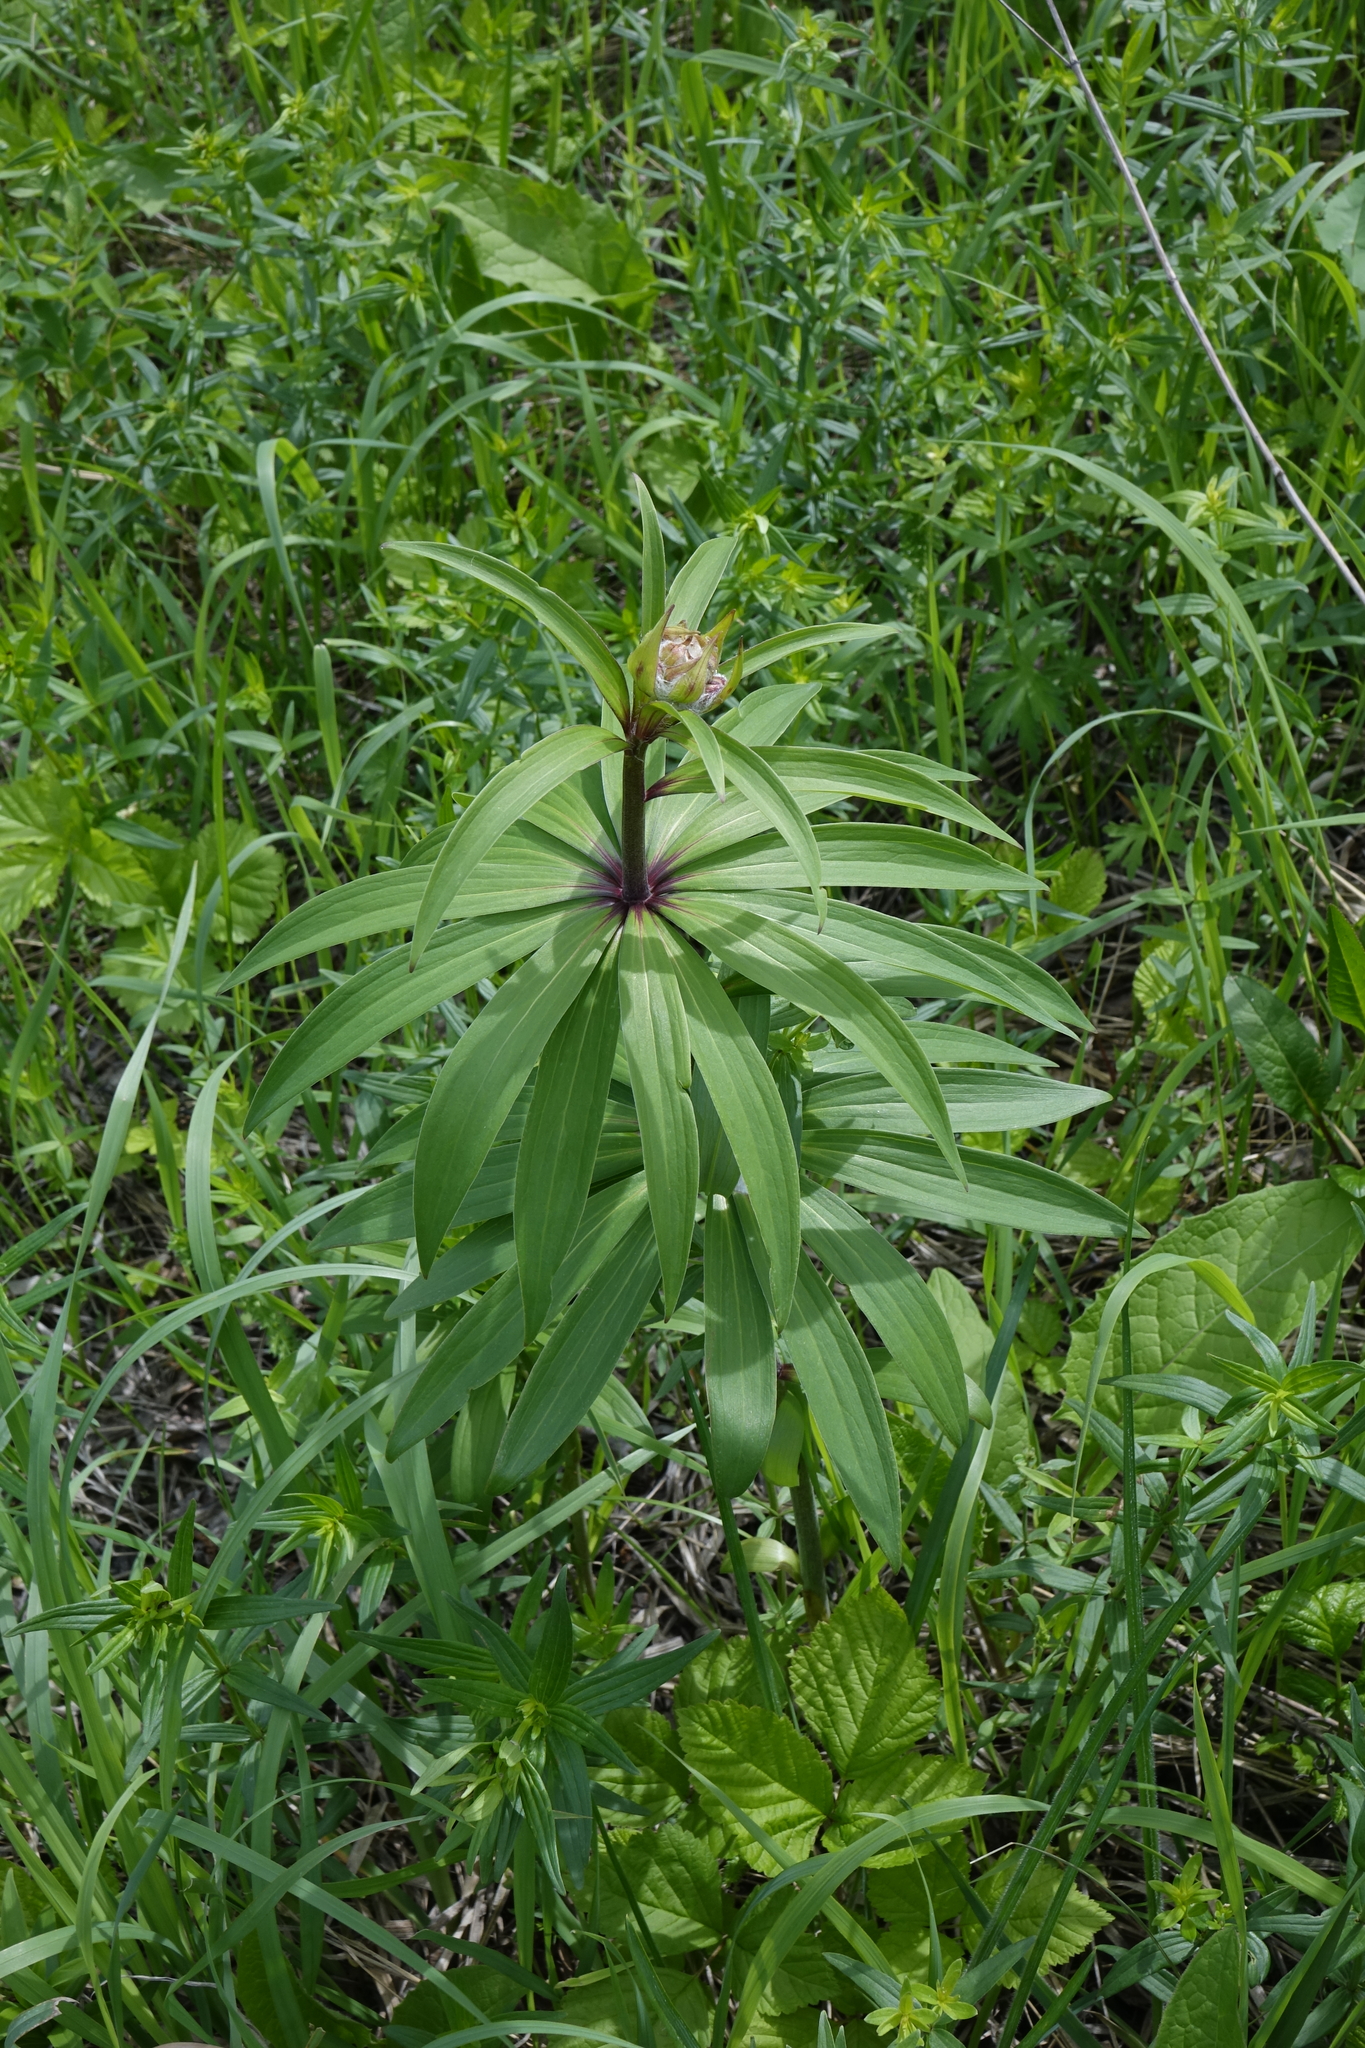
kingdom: Plantae
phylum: Tracheophyta
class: Liliopsida
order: Liliales
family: Liliaceae
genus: Lilium
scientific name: Lilium martagon
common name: Martagon lily
